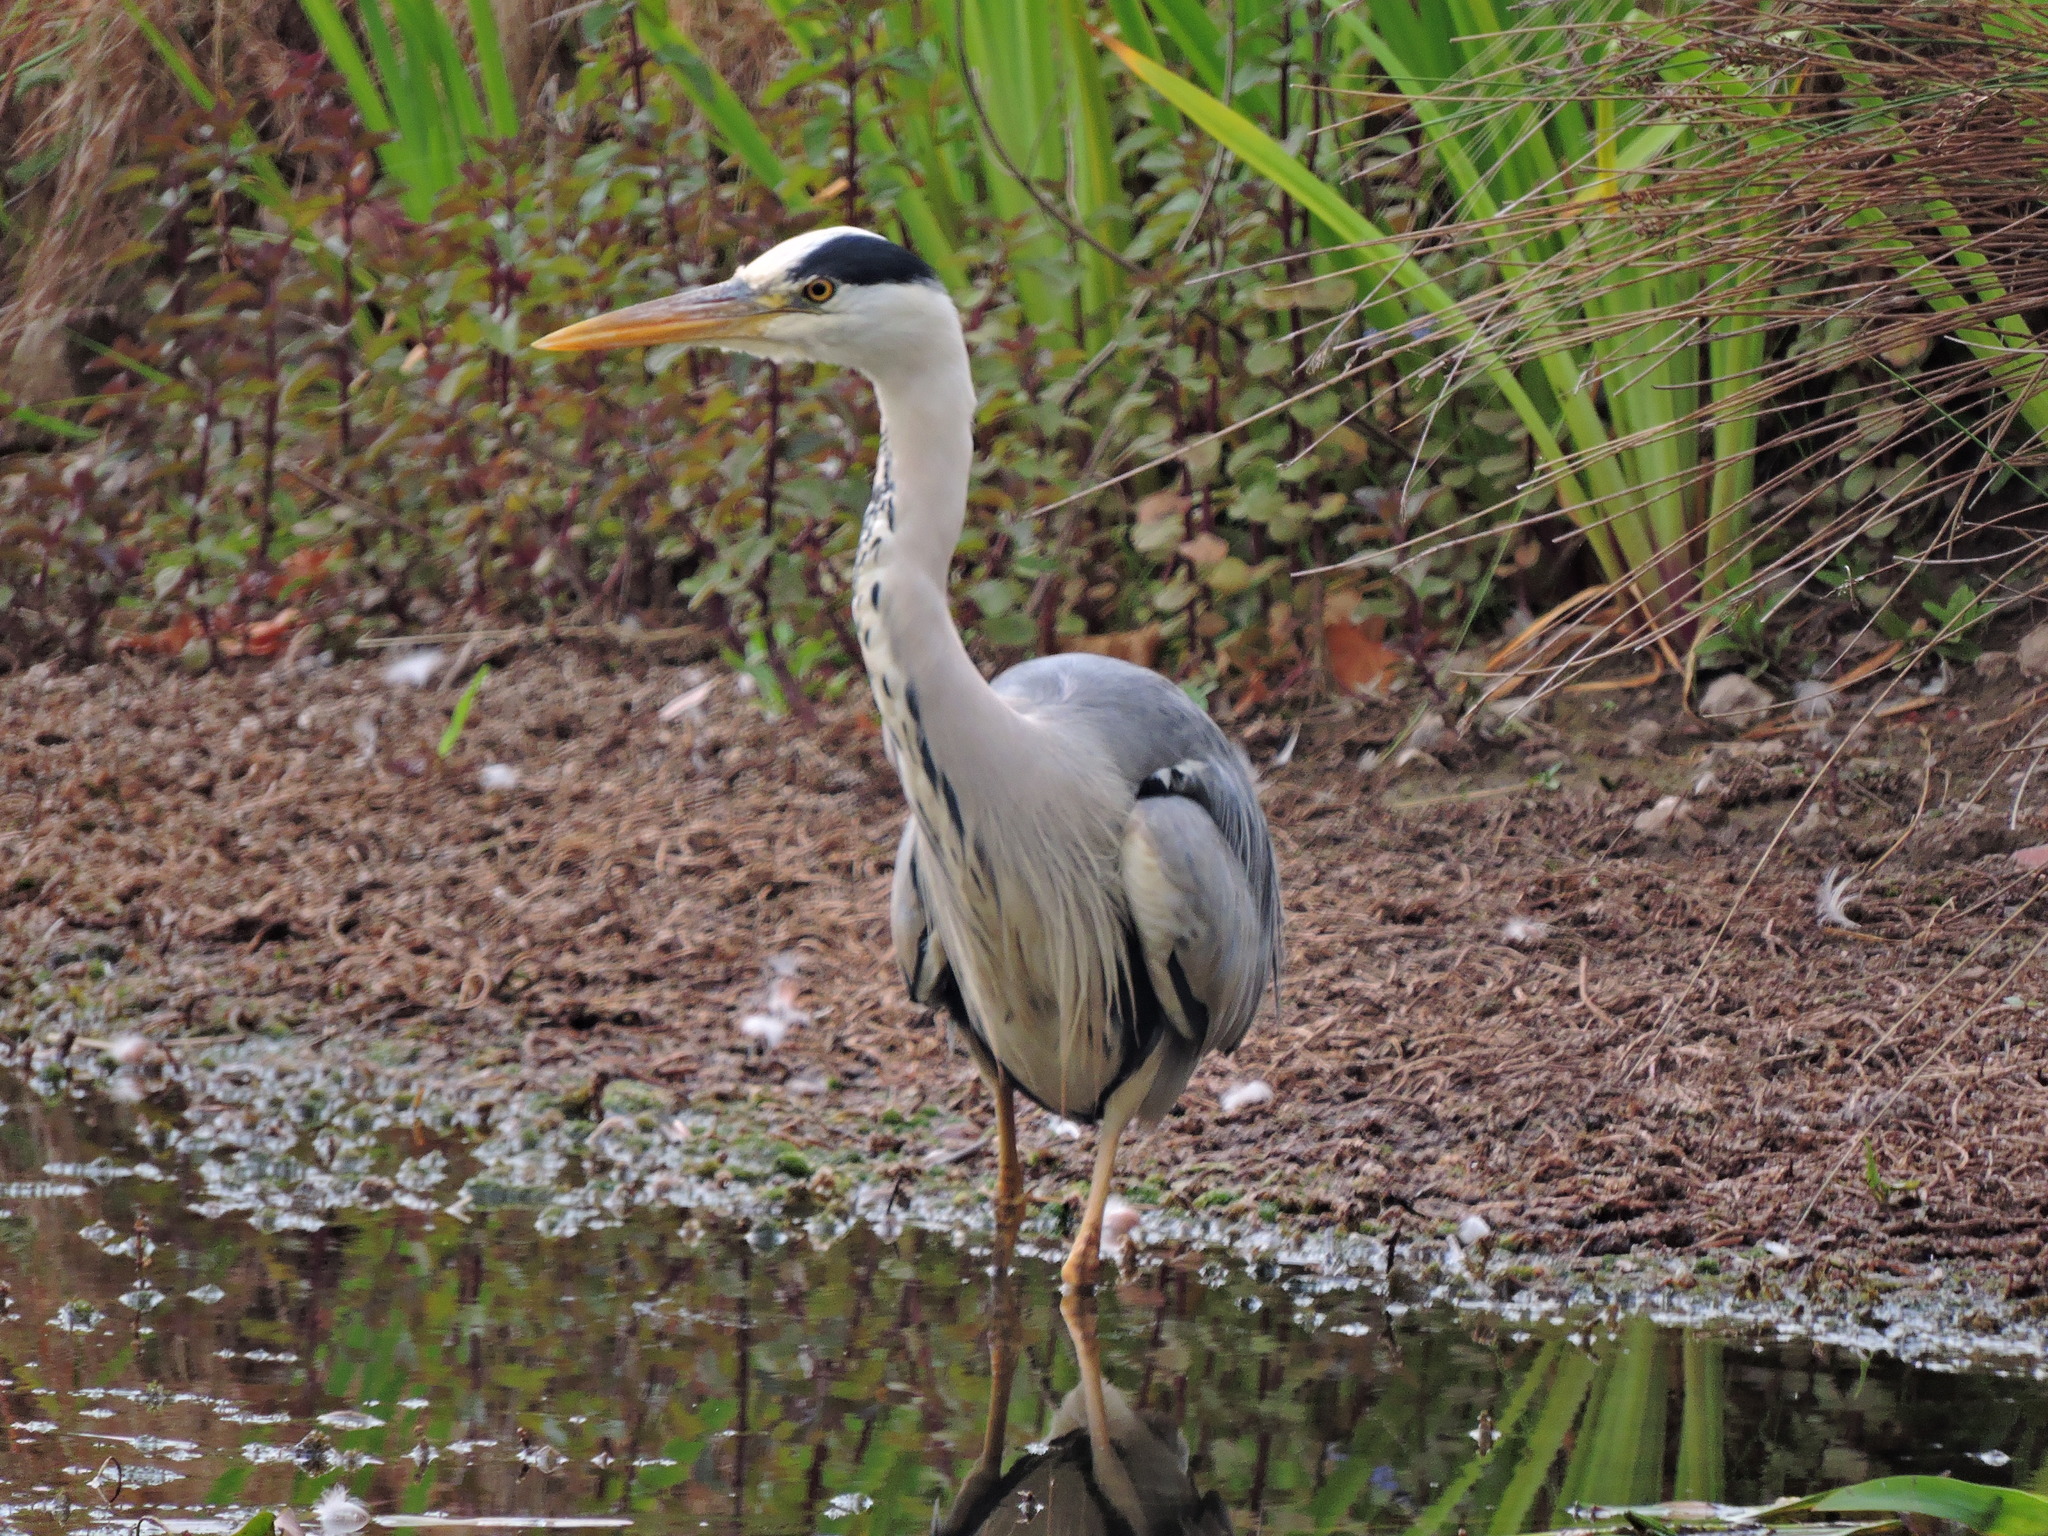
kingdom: Animalia
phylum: Chordata
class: Aves
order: Pelecaniformes
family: Ardeidae
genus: Ardea
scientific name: Ardea cinerea
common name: Grey heron
